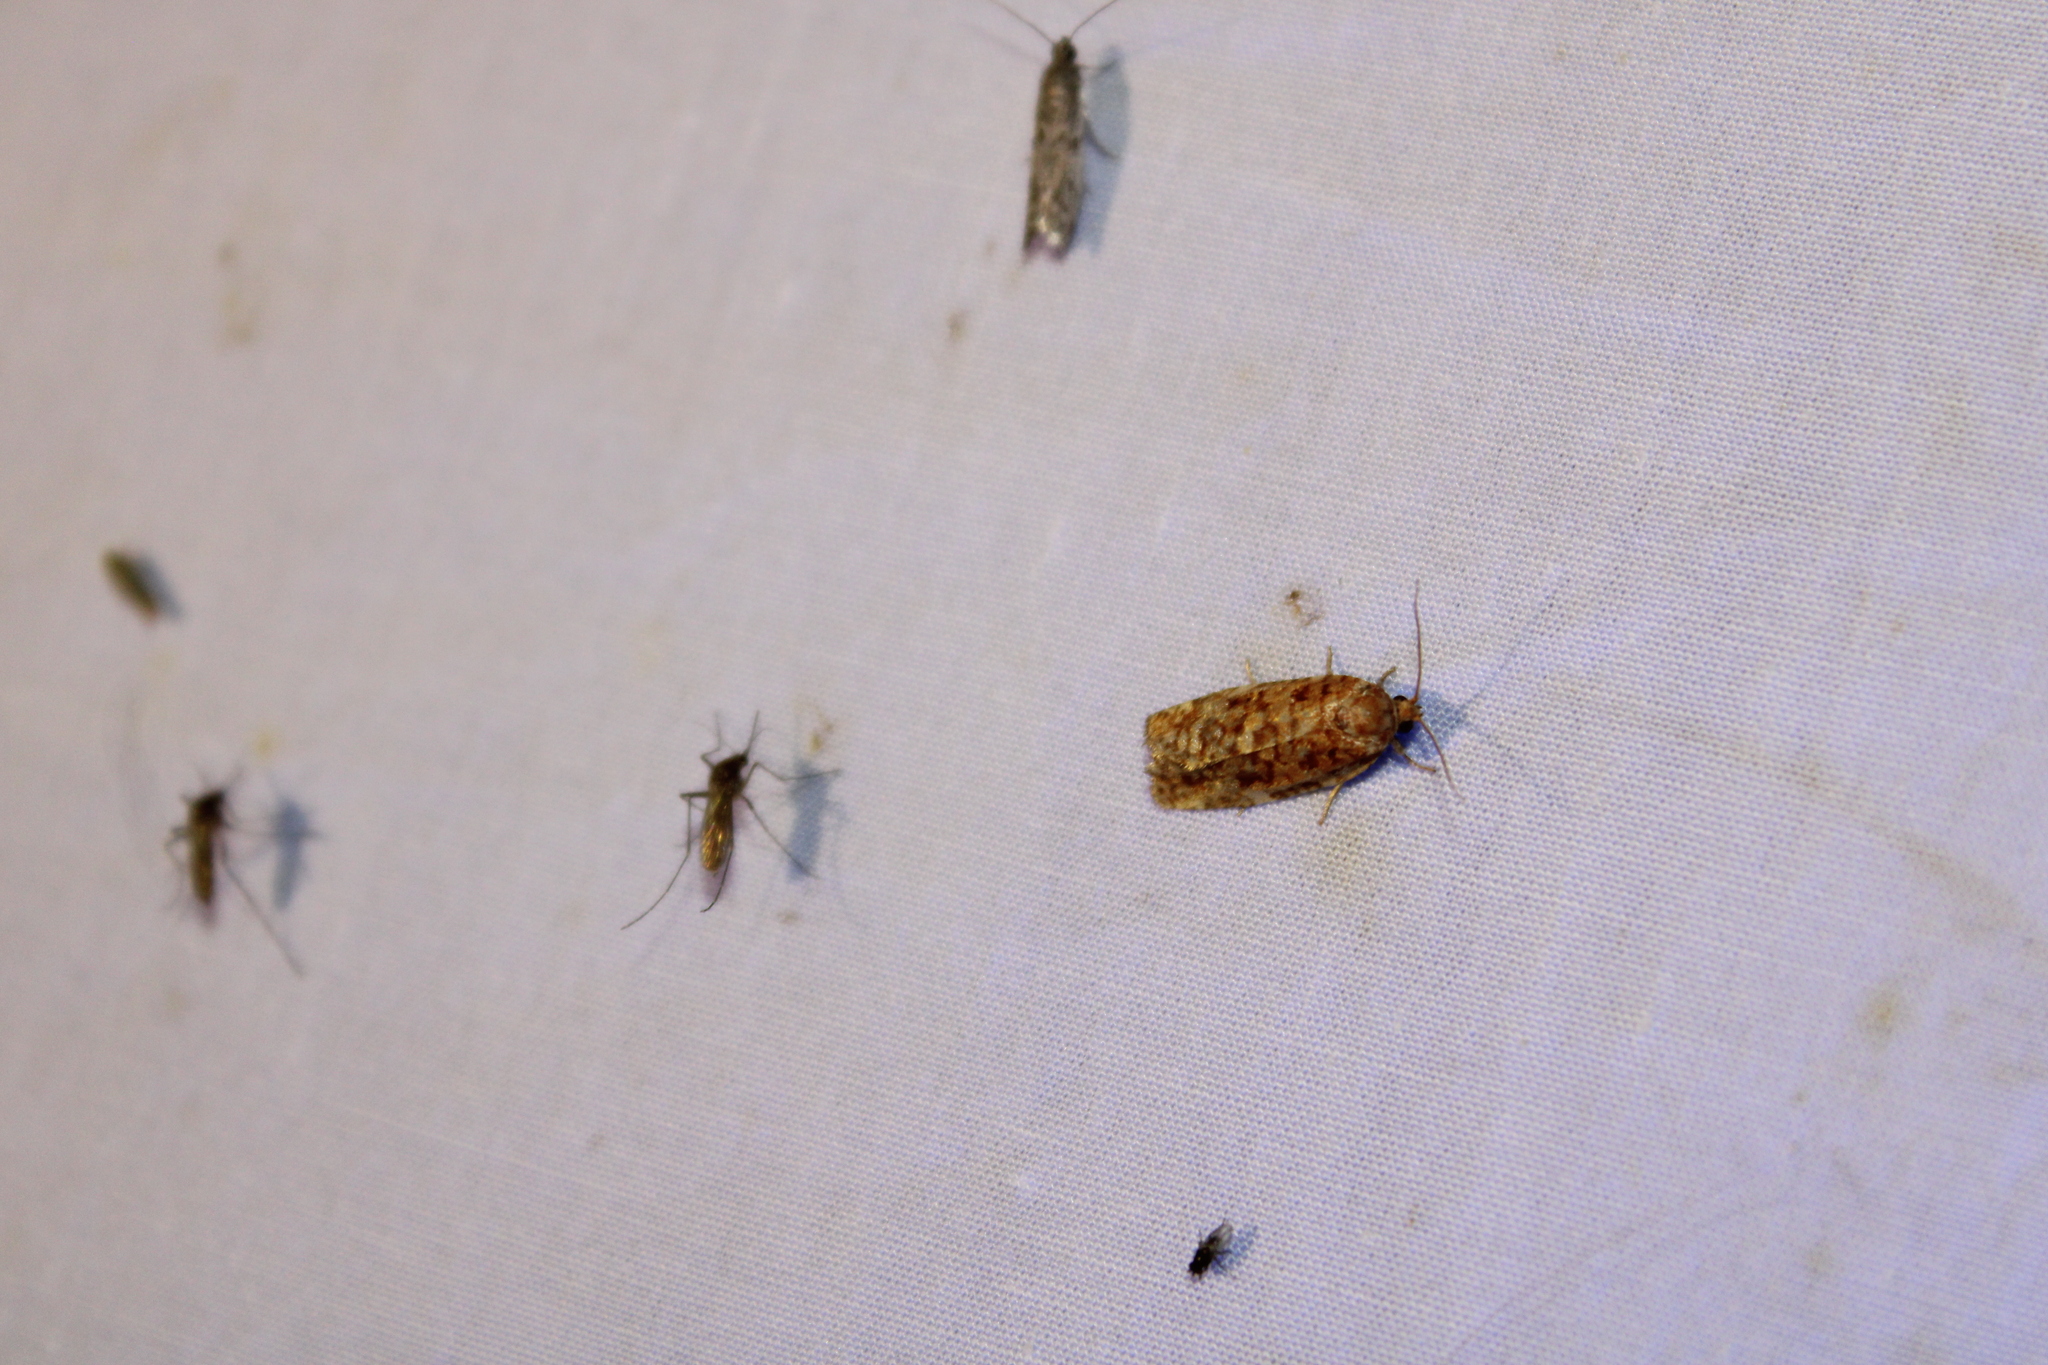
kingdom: Animalia
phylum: Arthropoda
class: Insecta
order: Lepidoptera
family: Tortricidae
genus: Choristoneura
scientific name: Choristoneura pinus
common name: Jack pine budworm
